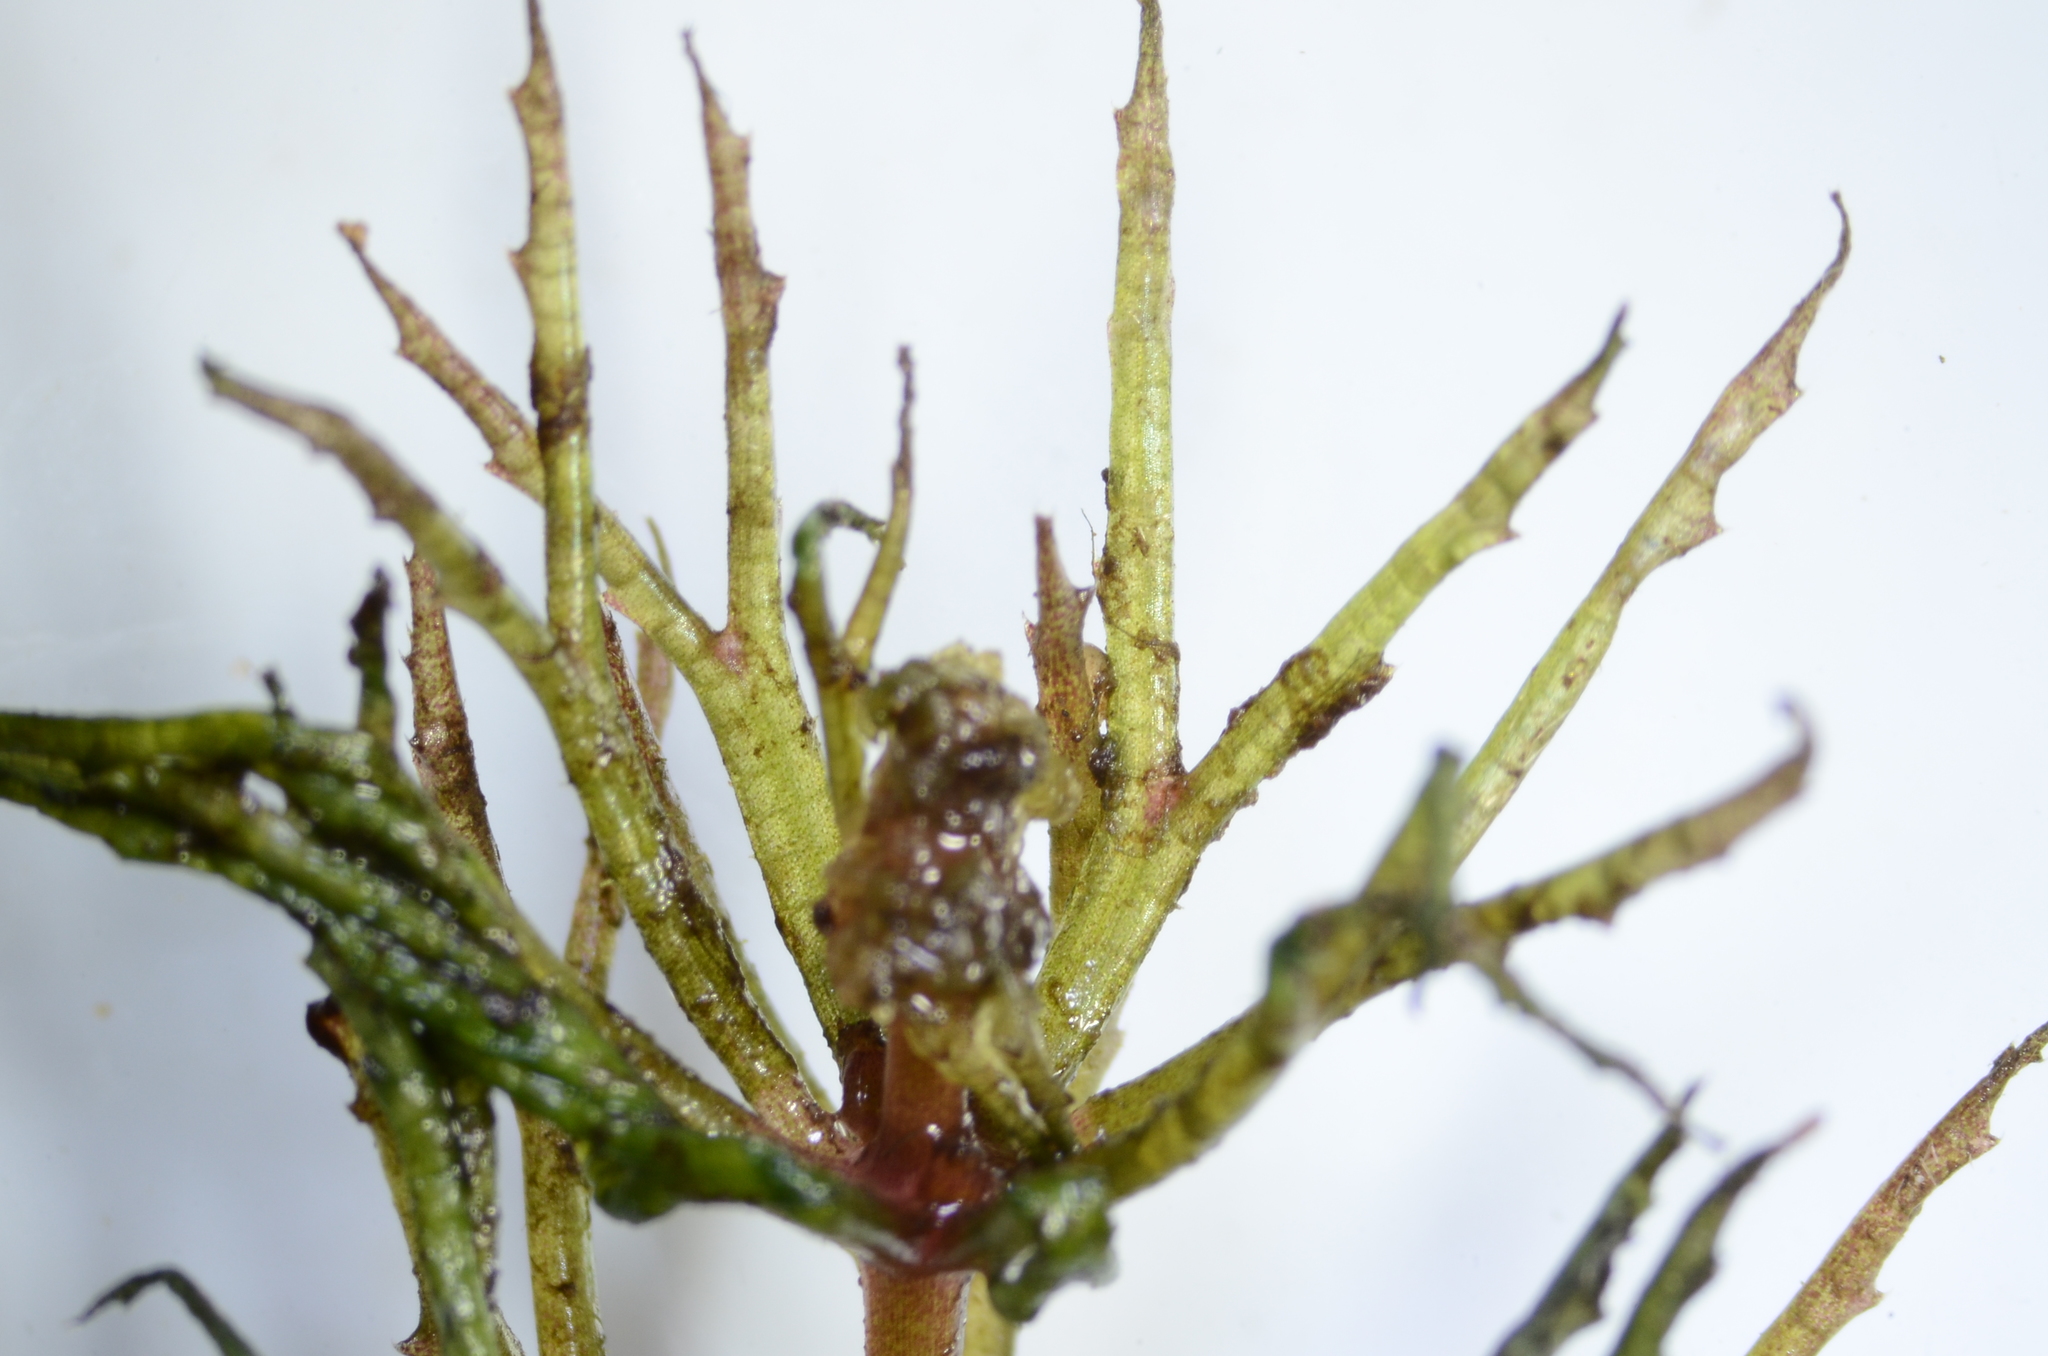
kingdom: Plantae
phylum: Tracheophyta
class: Magnoliopsida
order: Ceratophyllales
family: Ceratophyllaceae
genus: Ceratophyllum
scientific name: Ceratophyllum demersum
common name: Rigid hornwort
